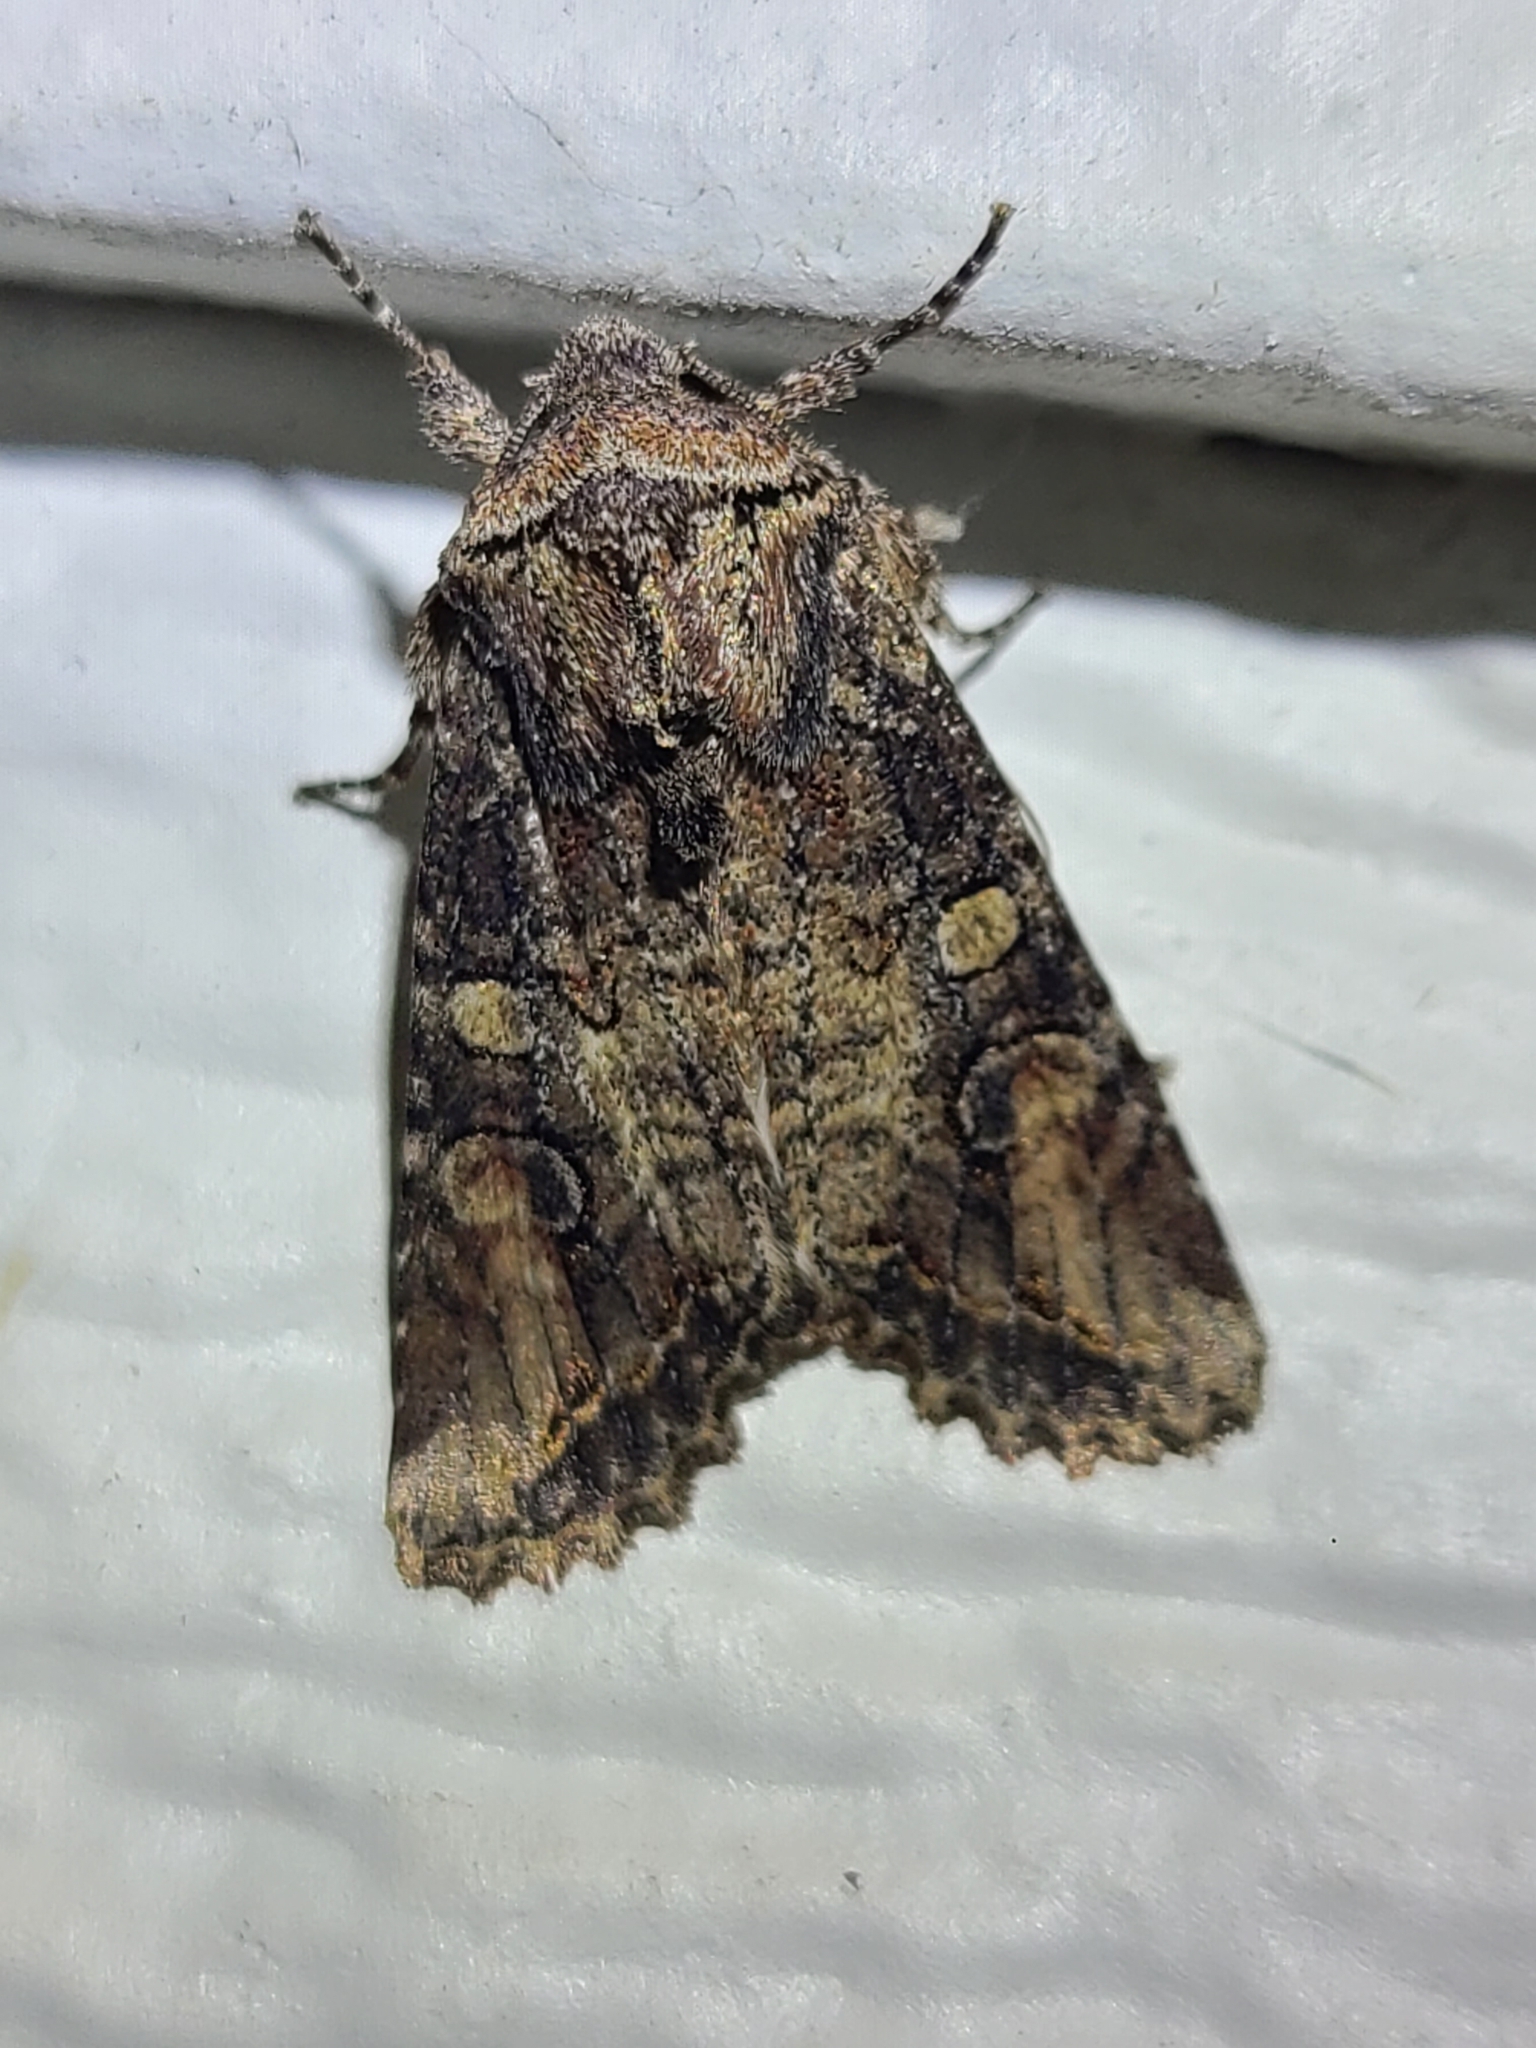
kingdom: Animalia
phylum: Arthropoda
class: Insecta
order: Lepidoptera
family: Noctuidae
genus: Egira
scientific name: Egira perlubens
